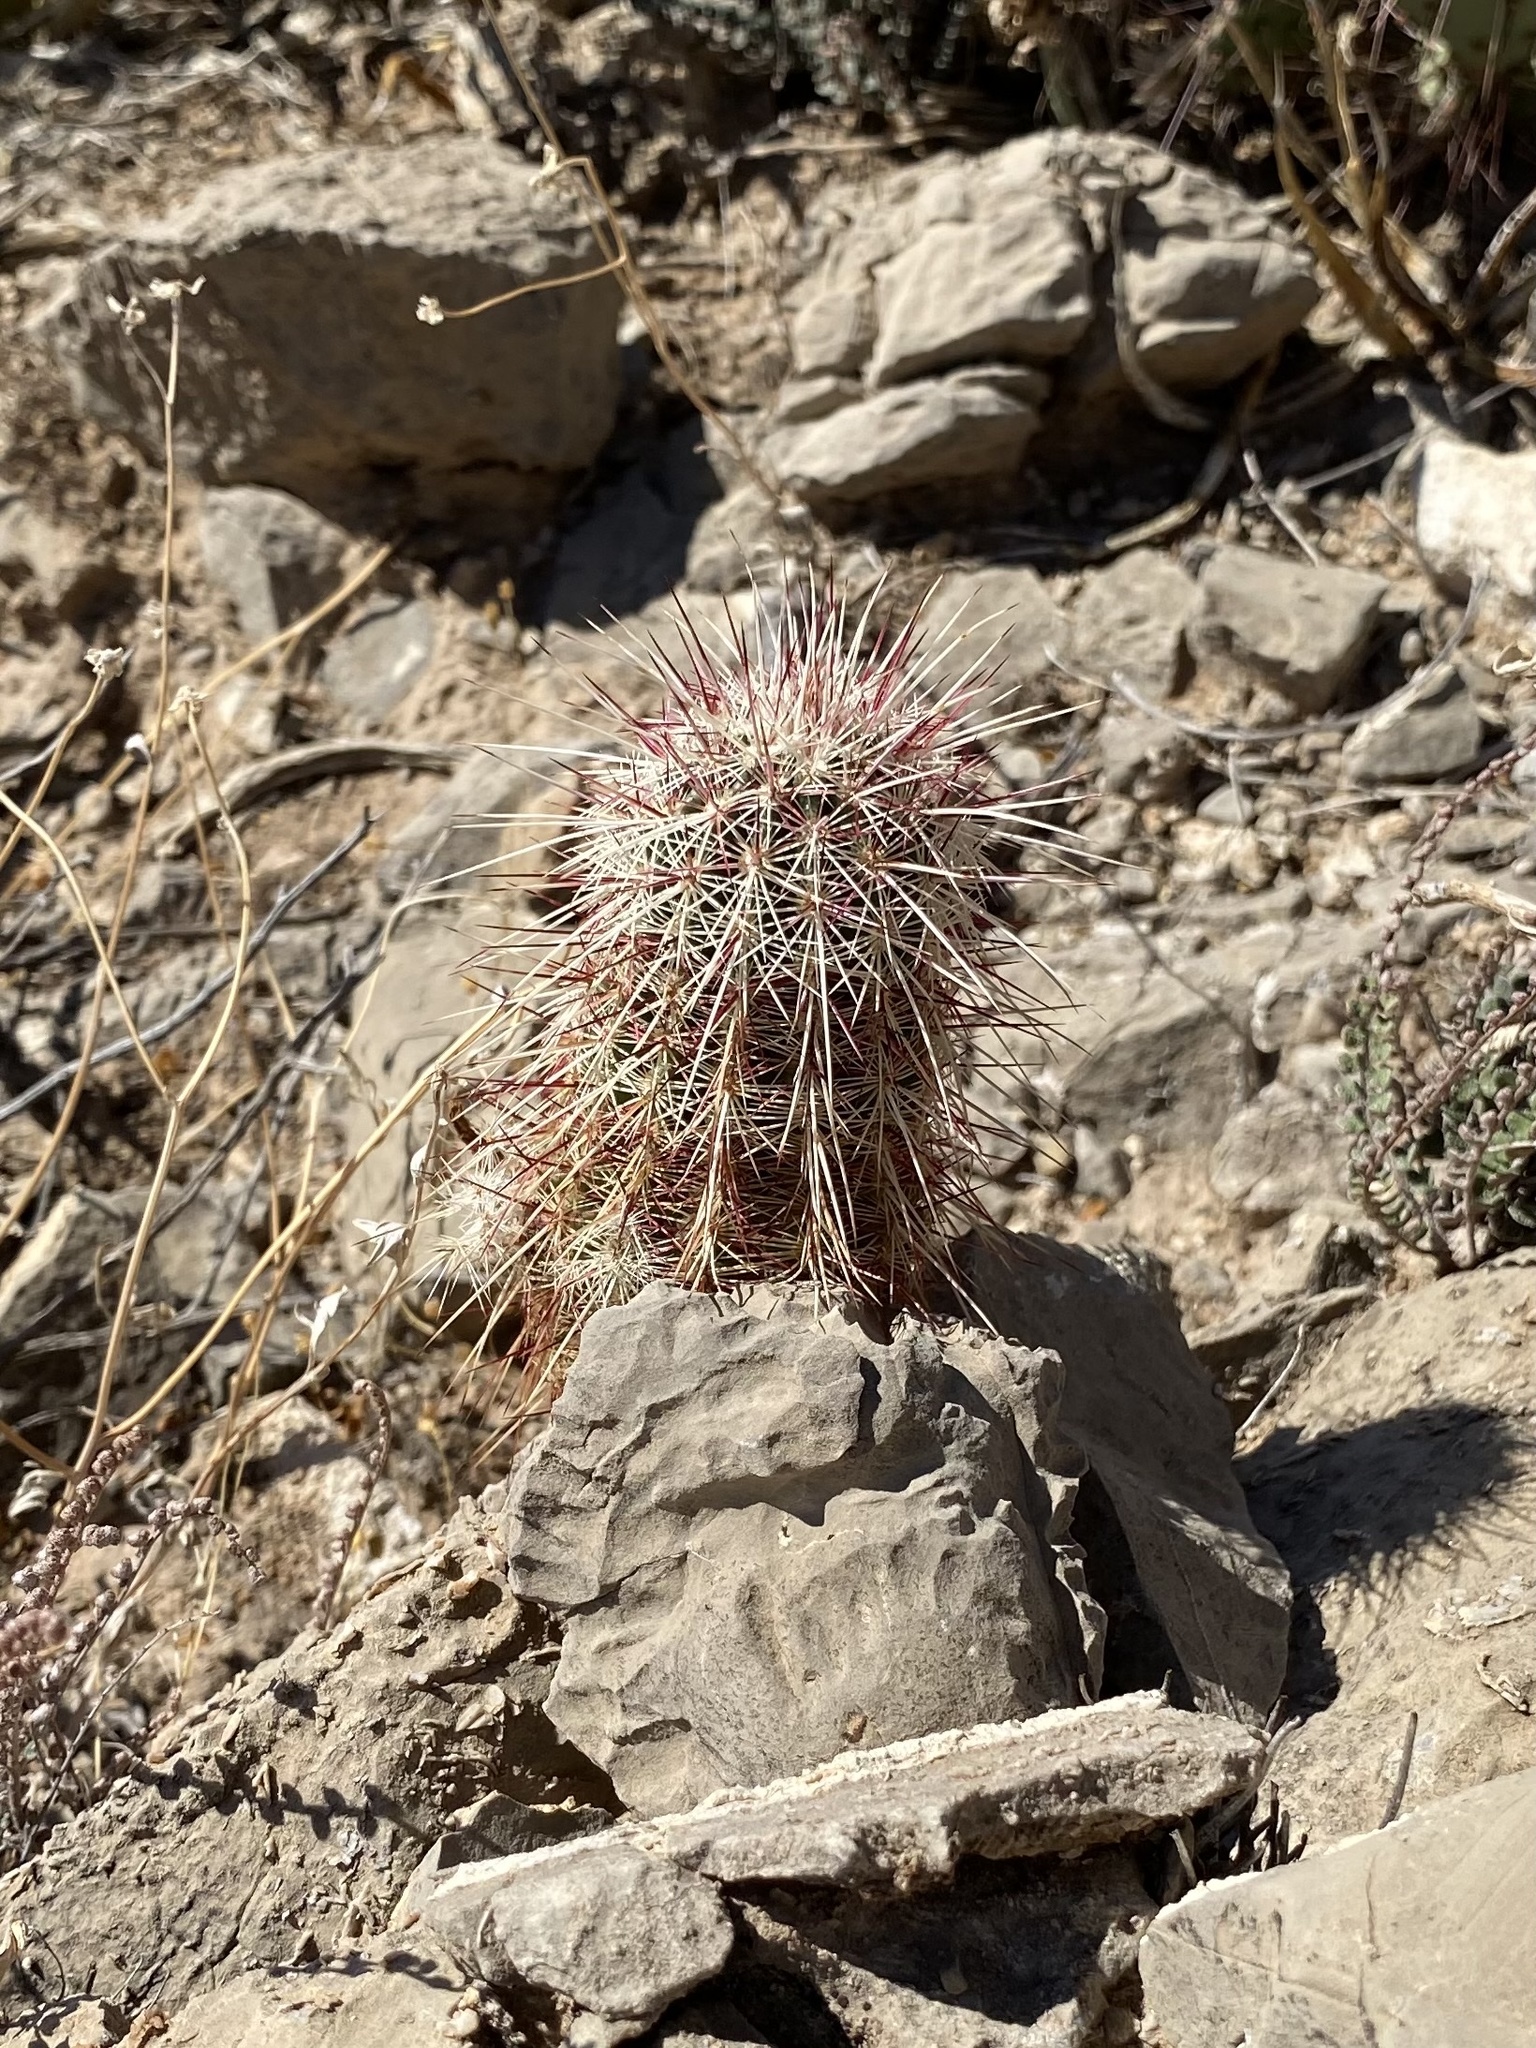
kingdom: Plantae
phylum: Tracheophyta
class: Magnoliopsida
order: Caryophyllales
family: Cactaceae
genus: Echinocereus
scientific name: Echinocereus viridiflorus
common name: Nylon hedgehog cactus
